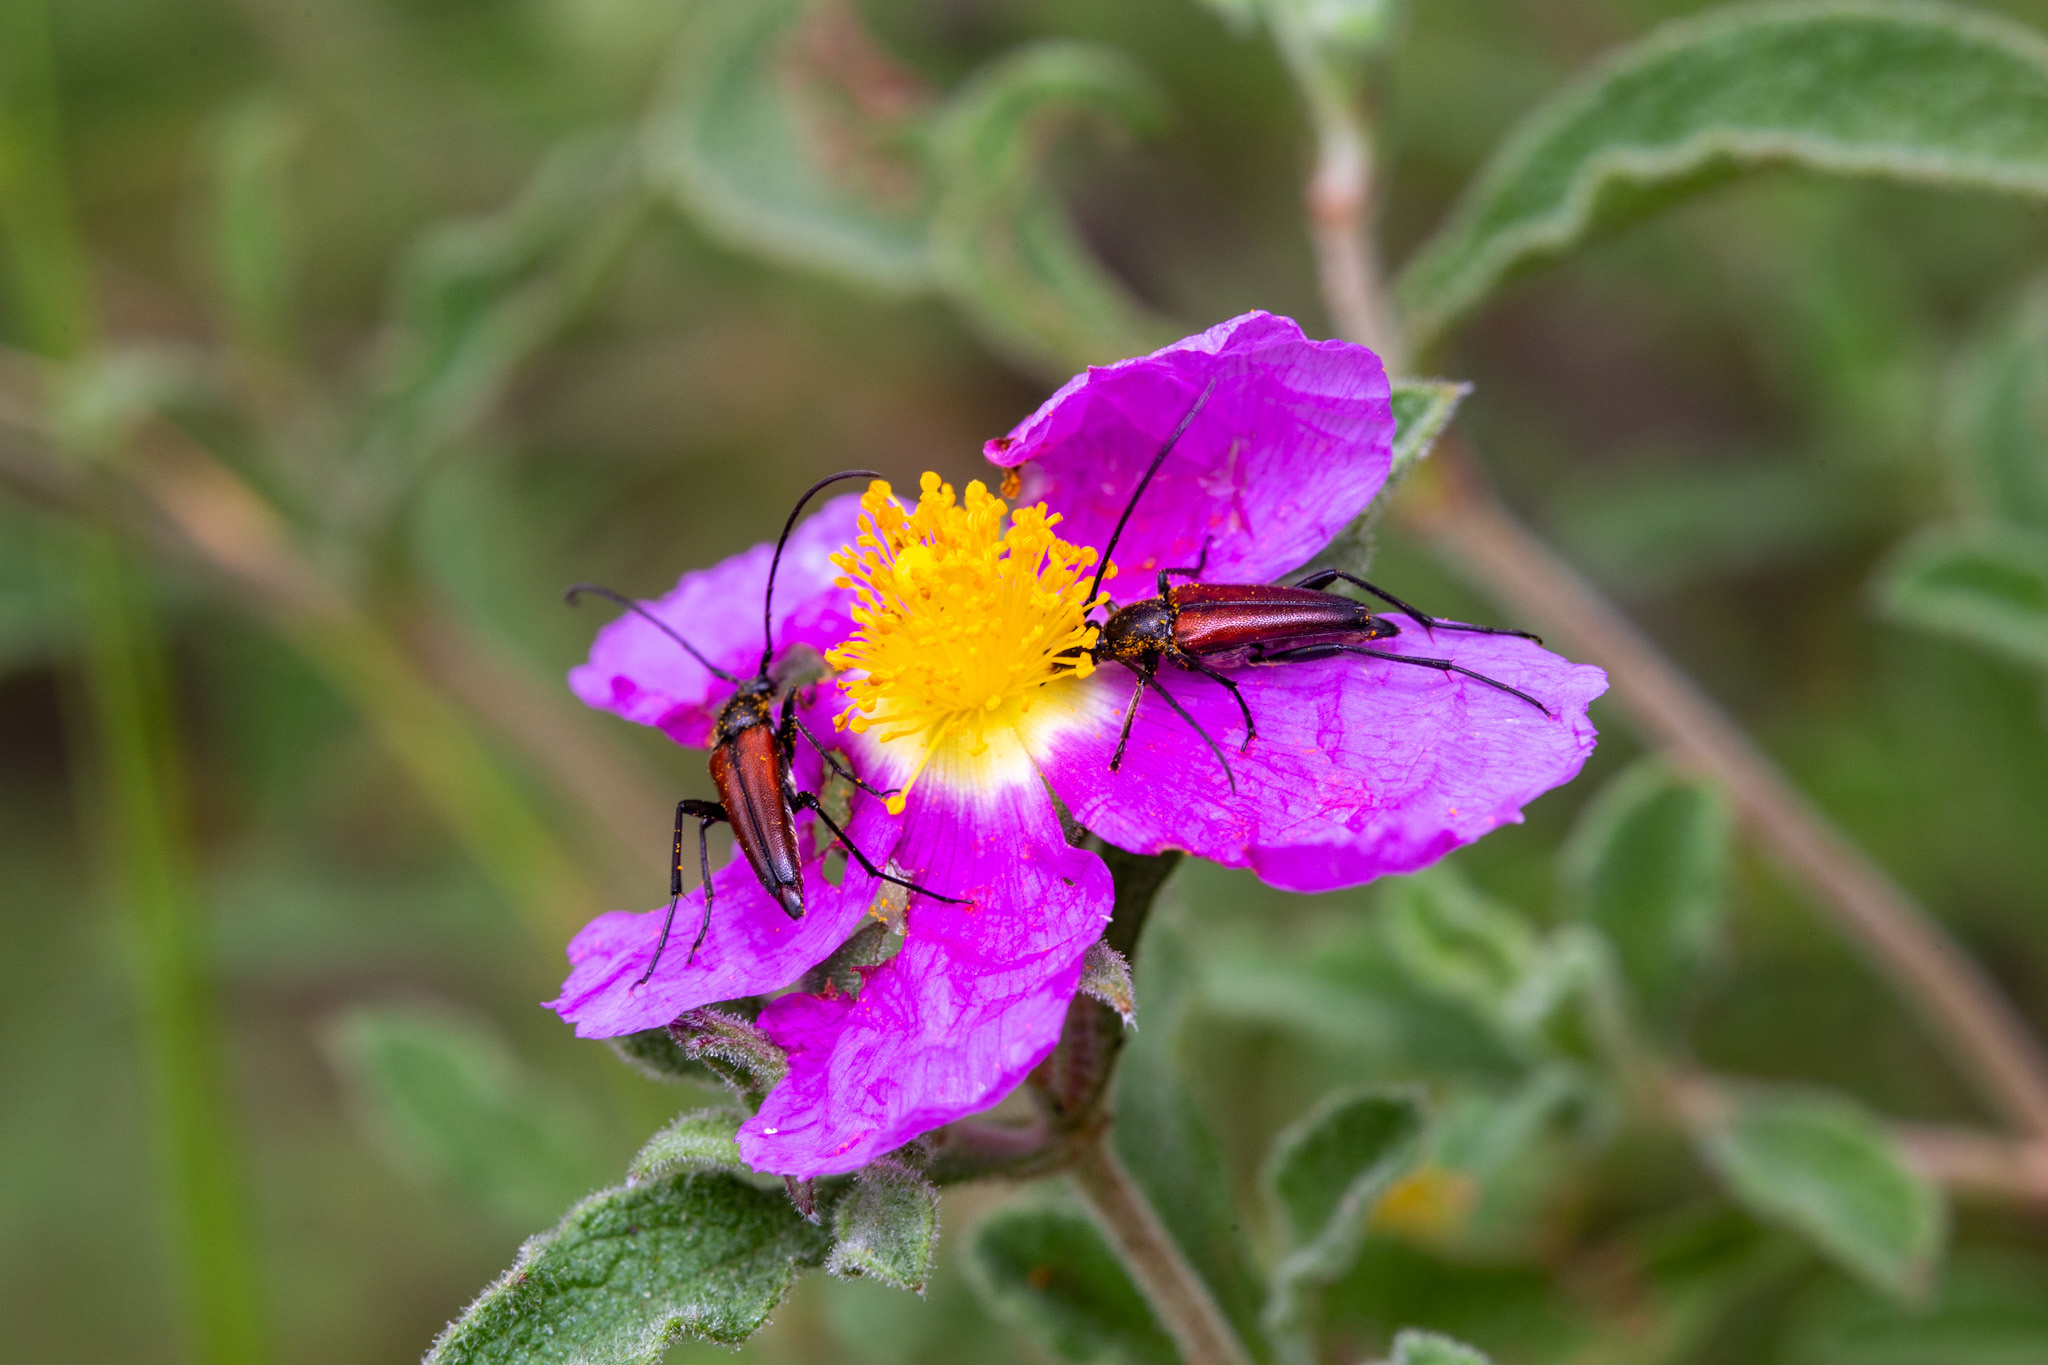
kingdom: Animalia
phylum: Arthropoda
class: Insecta
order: Coleoptera
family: Cerambycidae
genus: Stenurella
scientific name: Stenurella bifasciata
